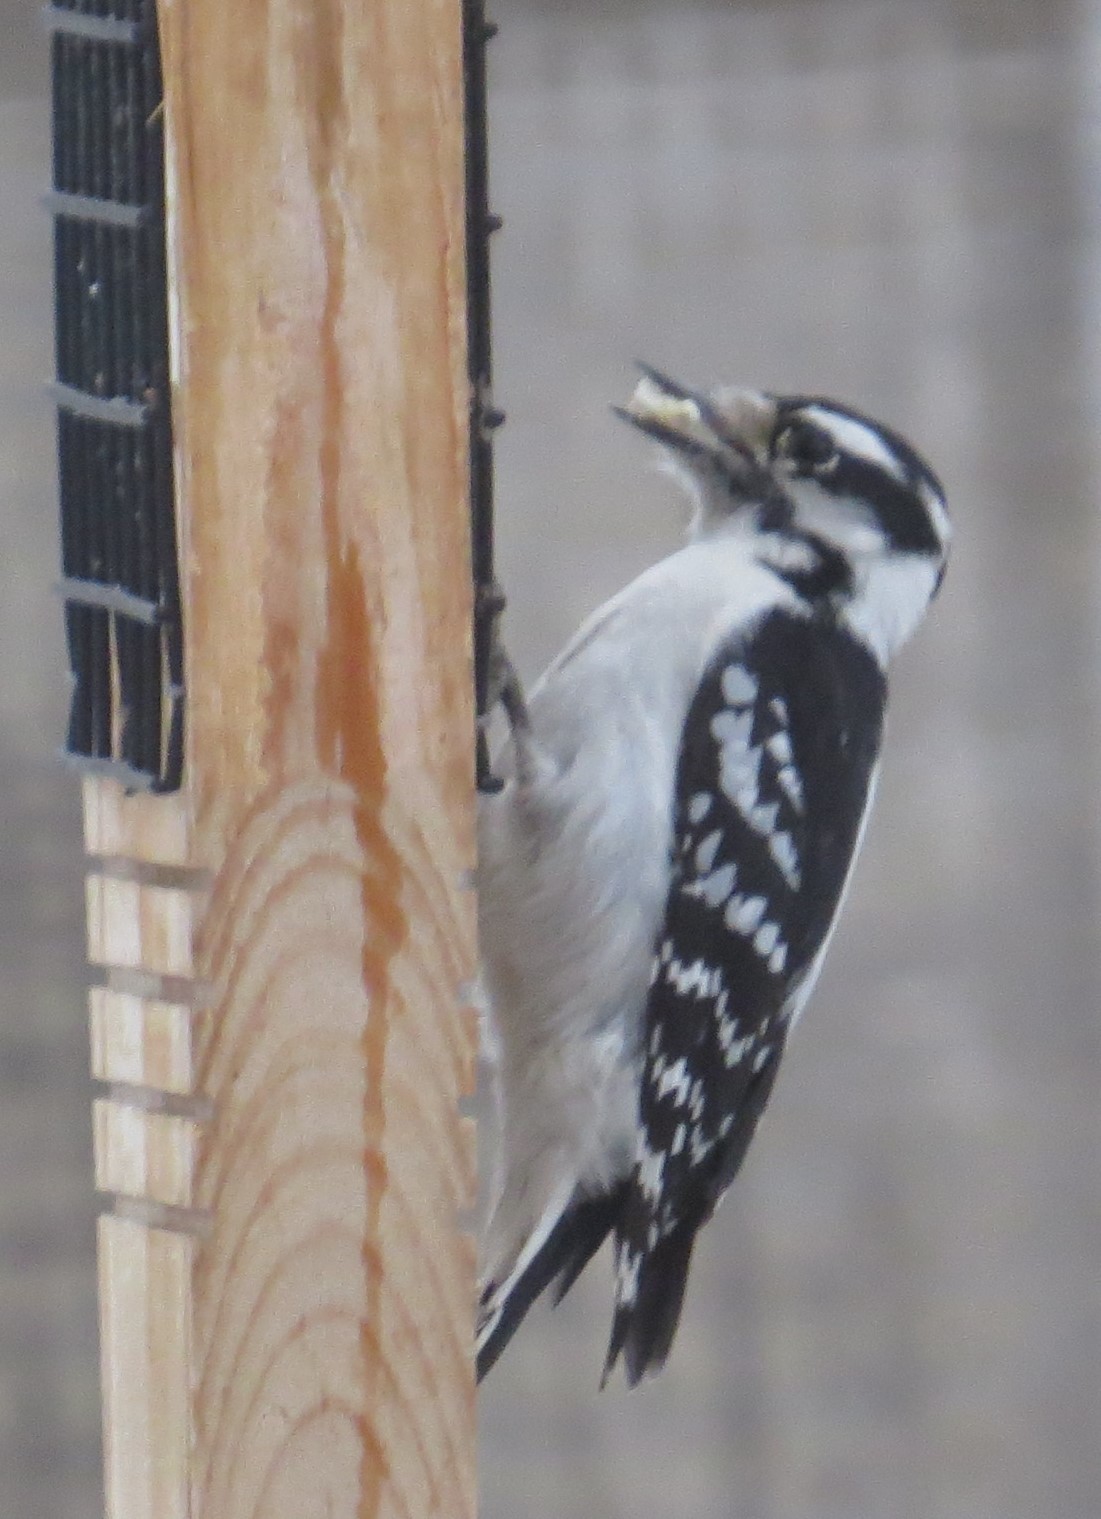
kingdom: Animalia
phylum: Chordata
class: Aves
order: Piciformes
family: Picidae
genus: Dryobates
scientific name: Dryobates pubescens
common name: Downy woodpecker
